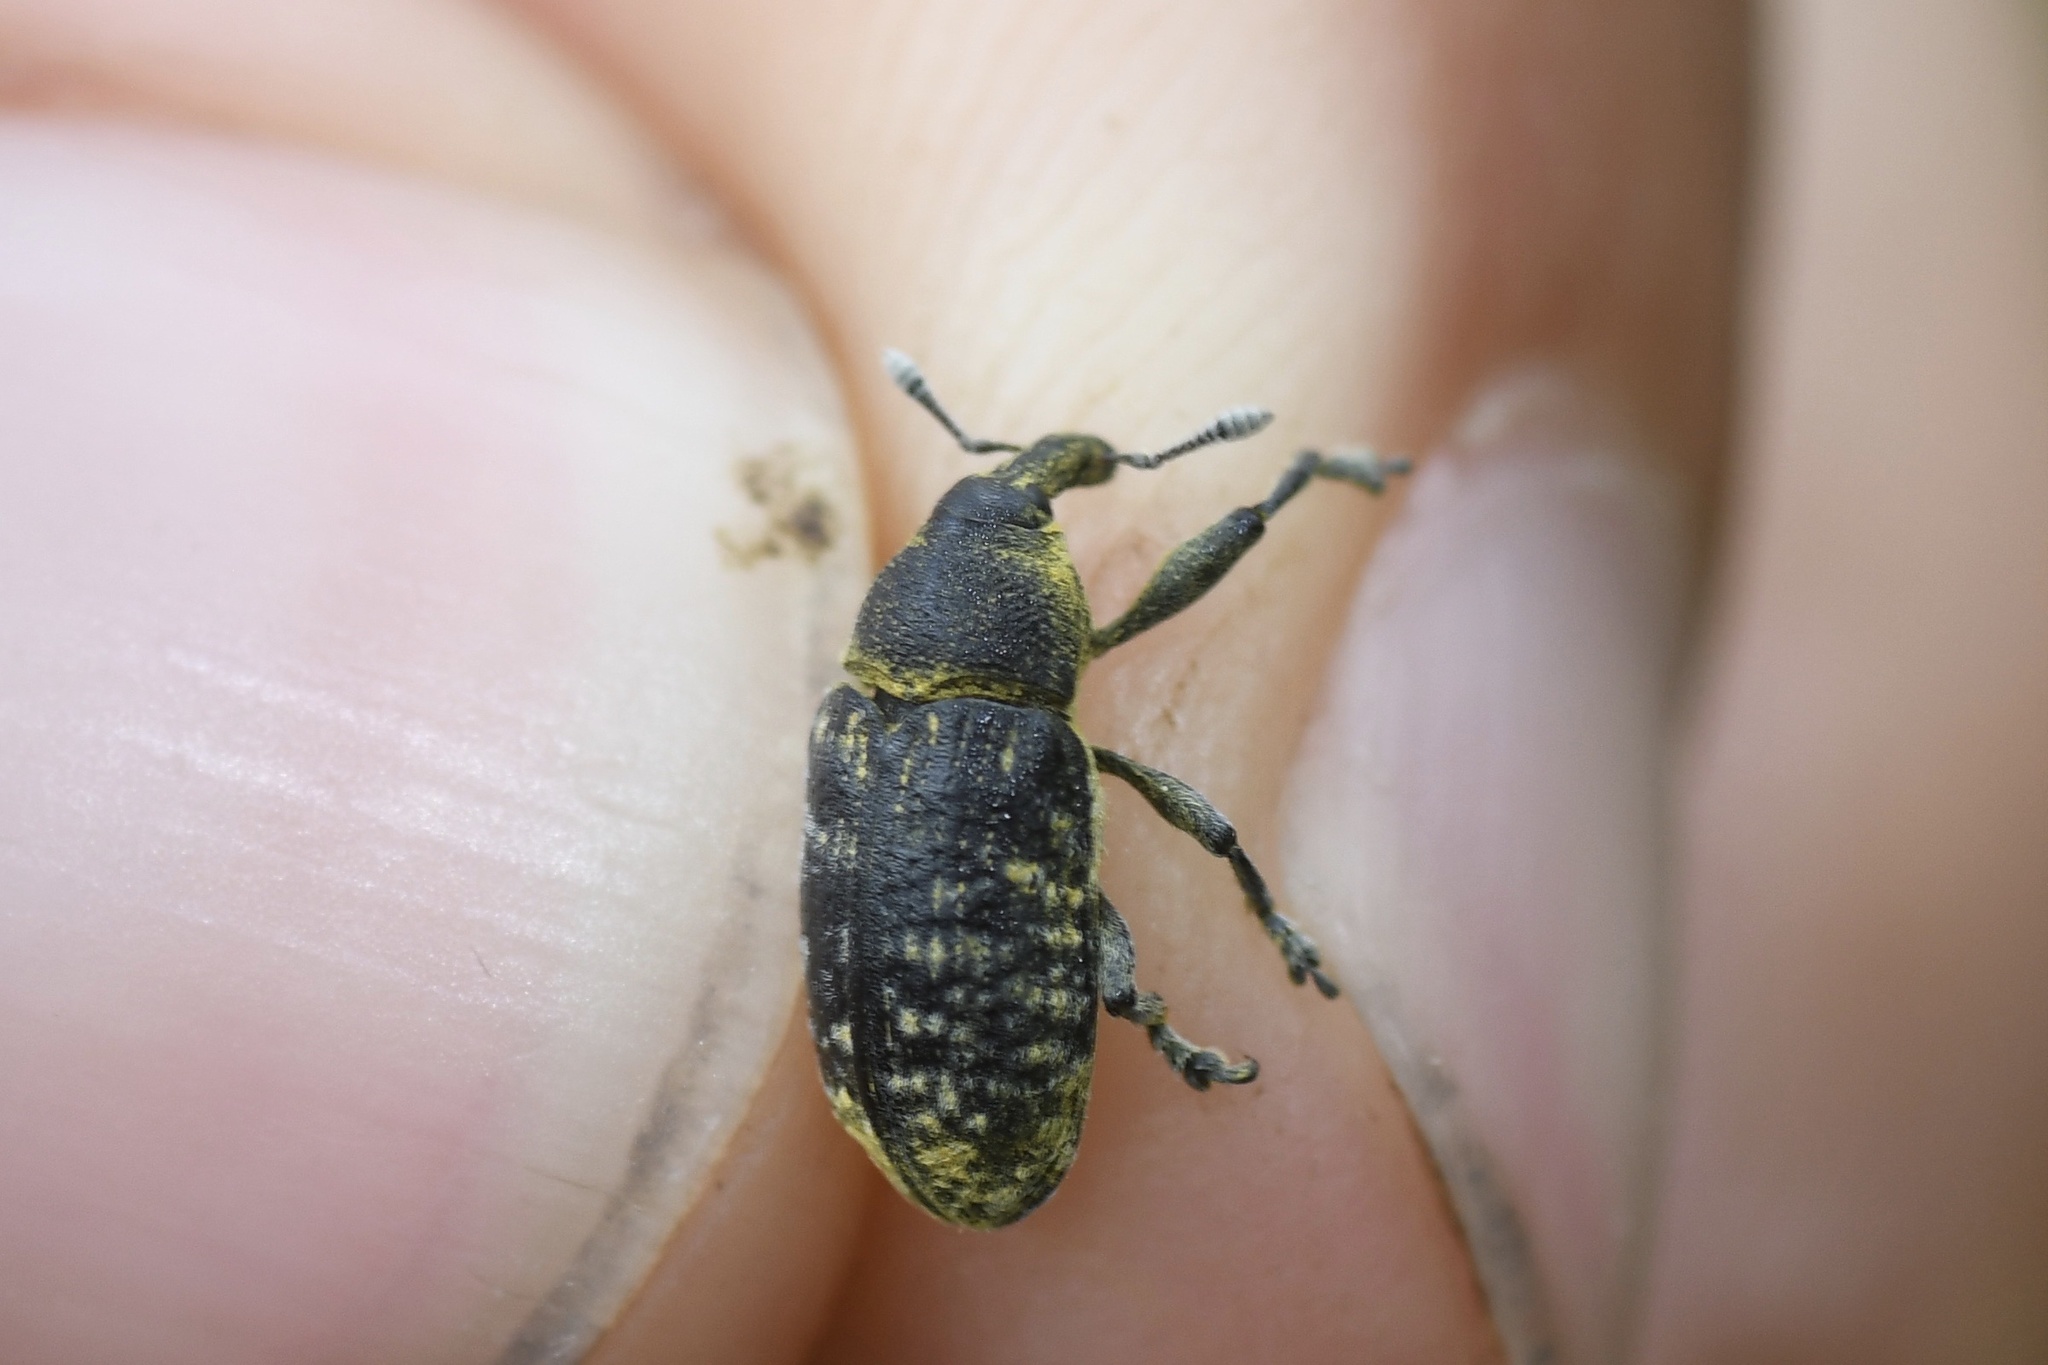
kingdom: Animalia
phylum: Arthropoda
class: Insecta
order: Coleoptera
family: Curculionidae
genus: Larinus
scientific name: Larinus carlinae
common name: Weevil
